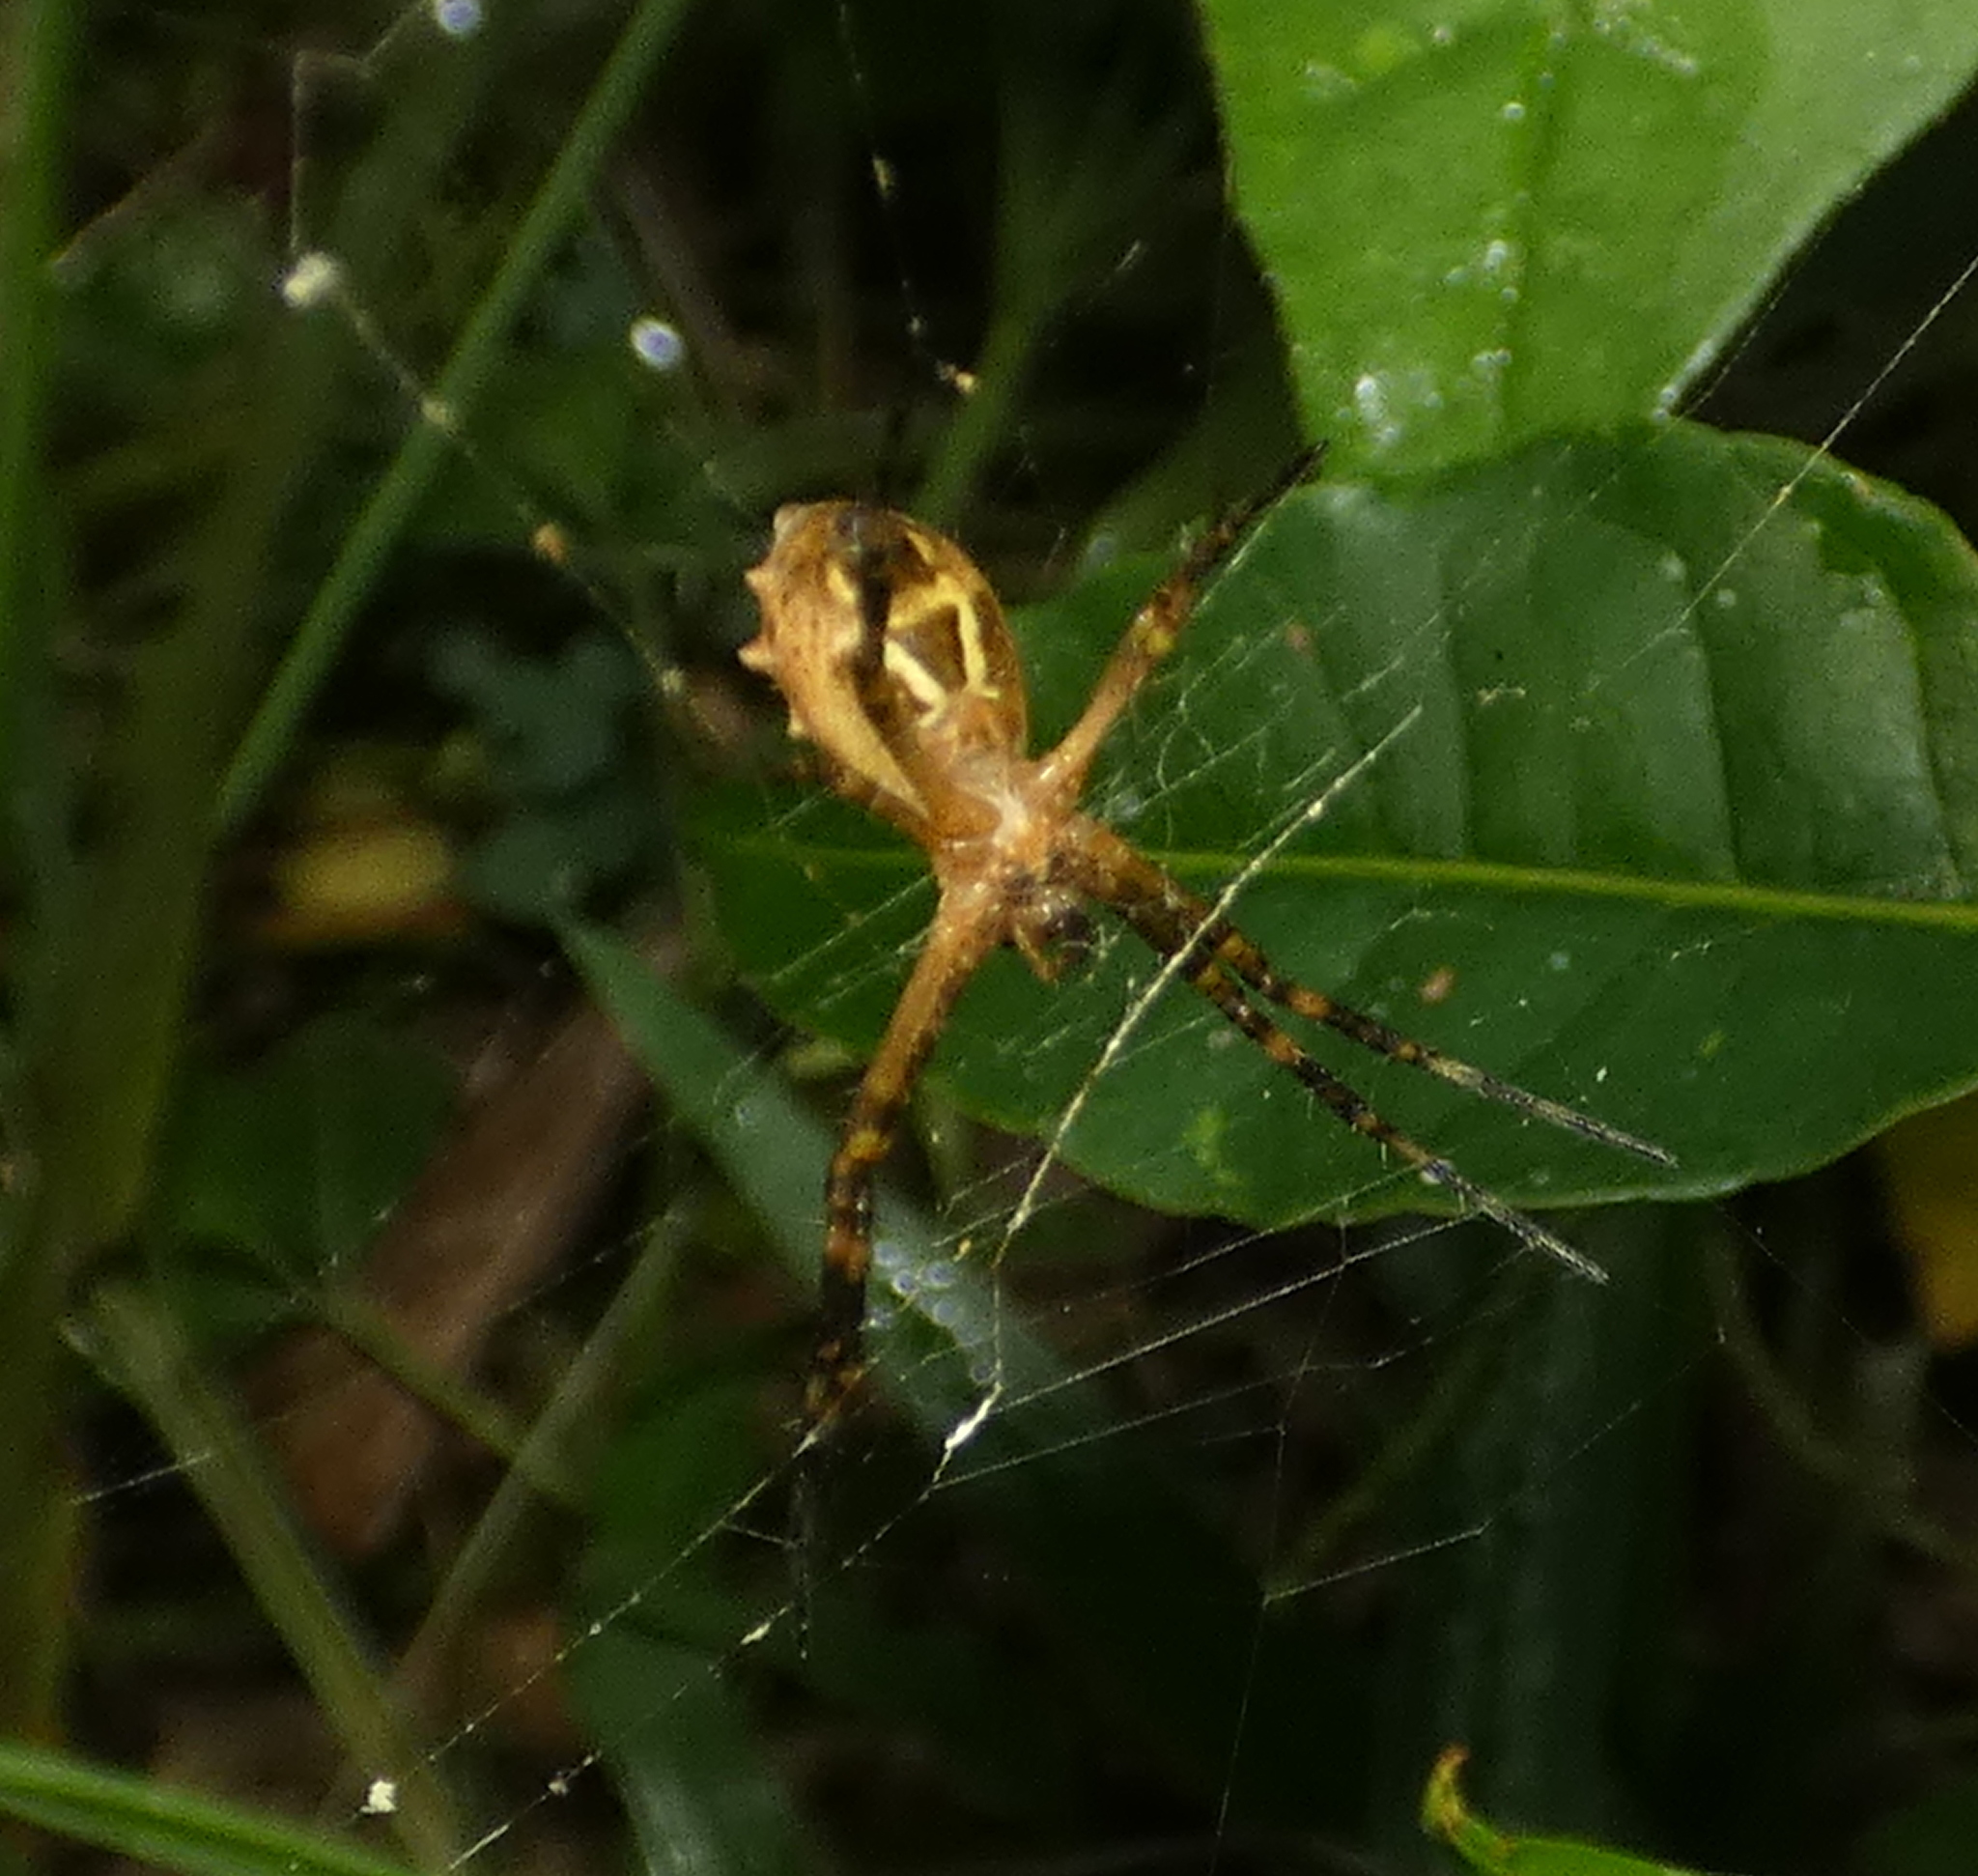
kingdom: Animalia
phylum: Arthropoda
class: Arachnida
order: Araneae
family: Araneidae
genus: Argiope
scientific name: Argiope argentata
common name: Orb weavers
